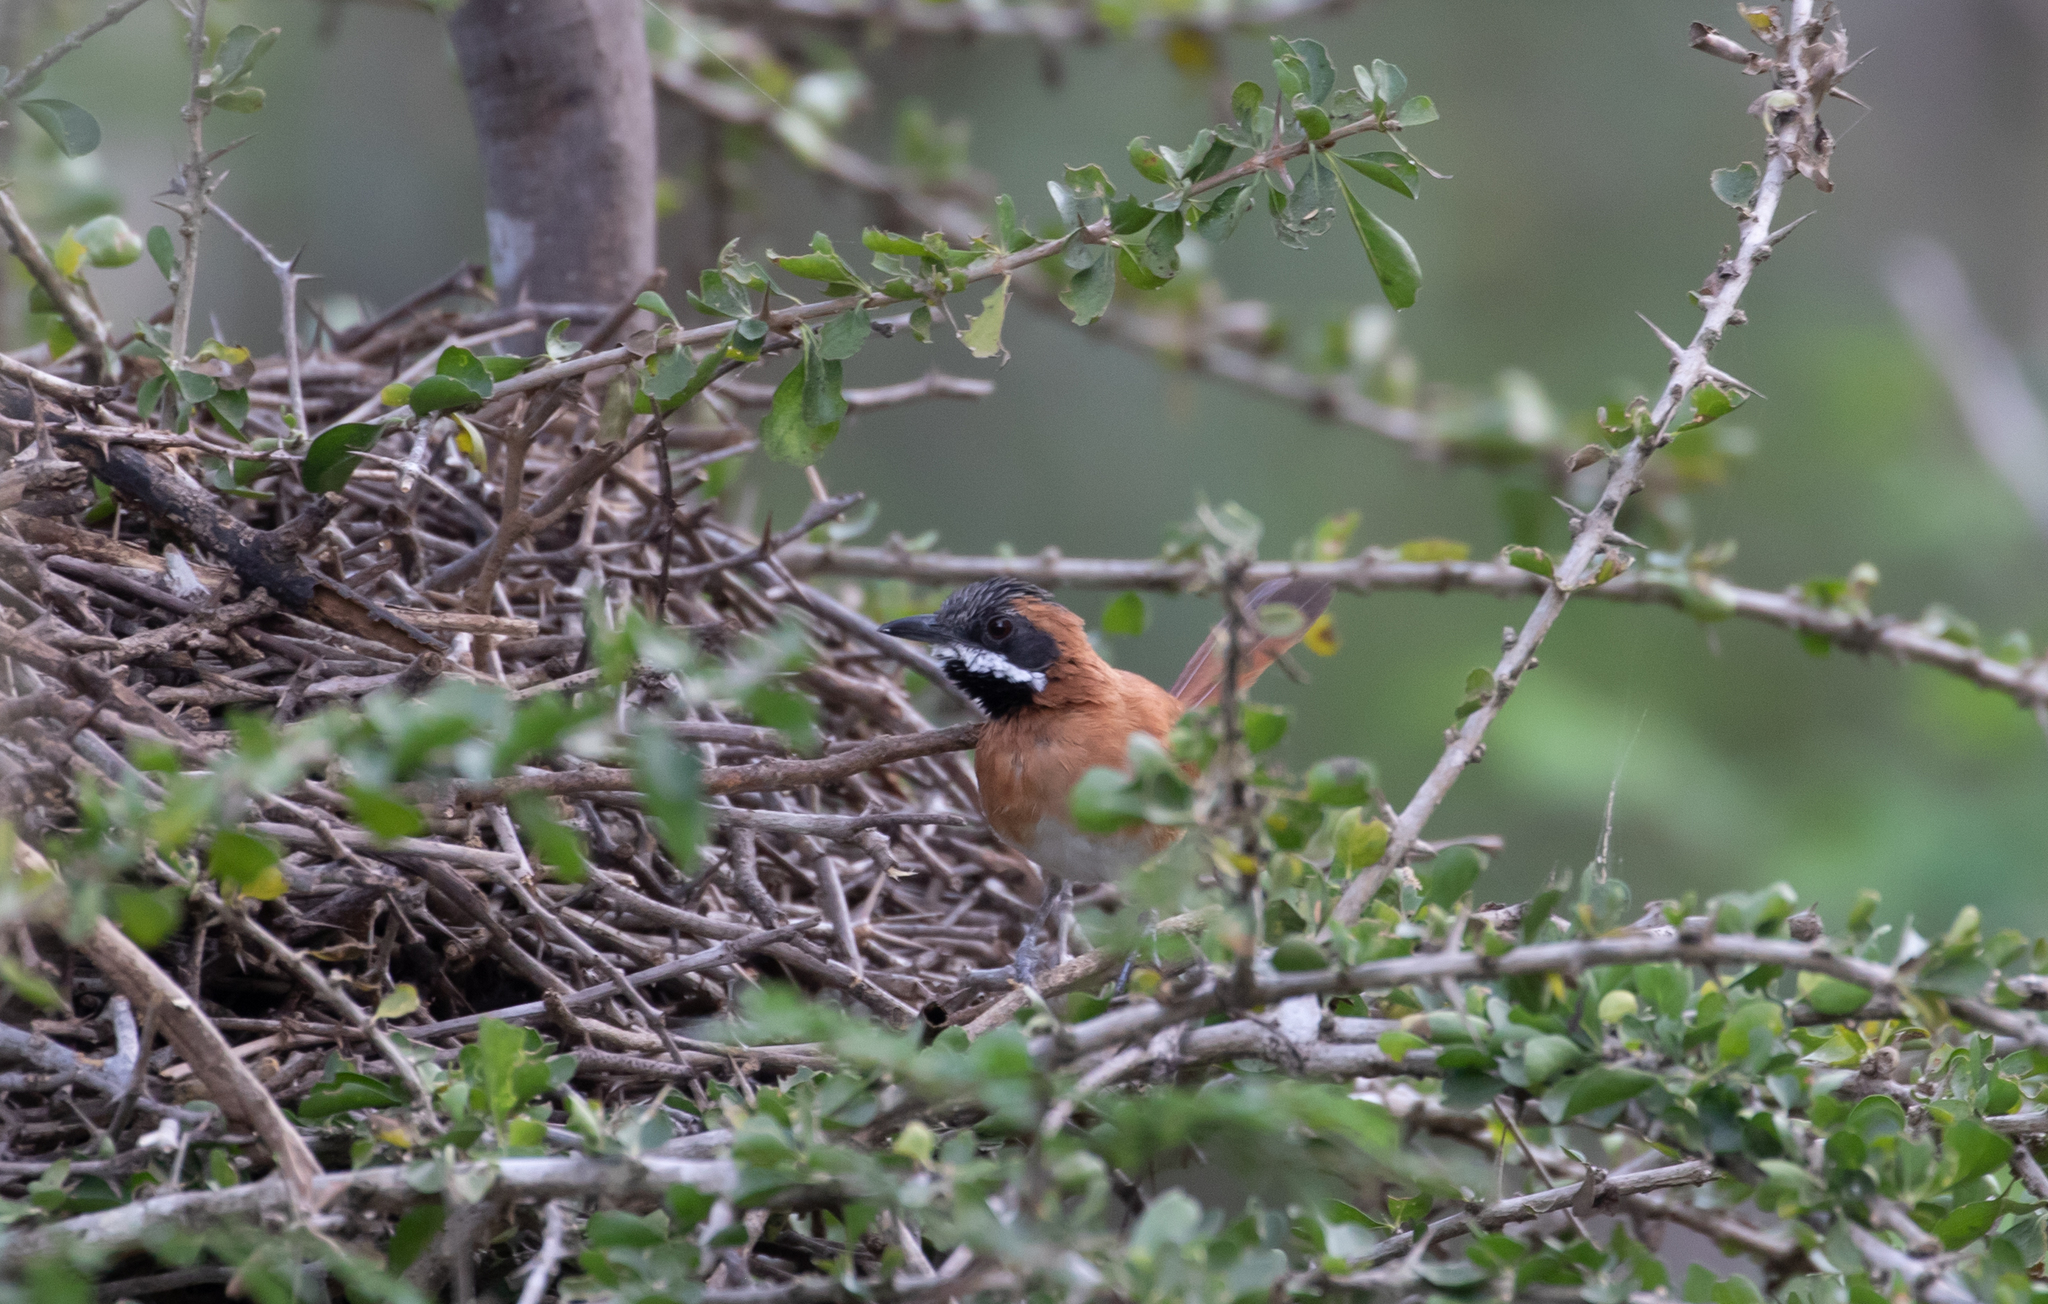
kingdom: Animalia
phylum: Chordata
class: Aves
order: Passeriformes
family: Furnariidae
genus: Synallaxis
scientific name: Synallaxis candei
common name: White-whiskered spinetail
